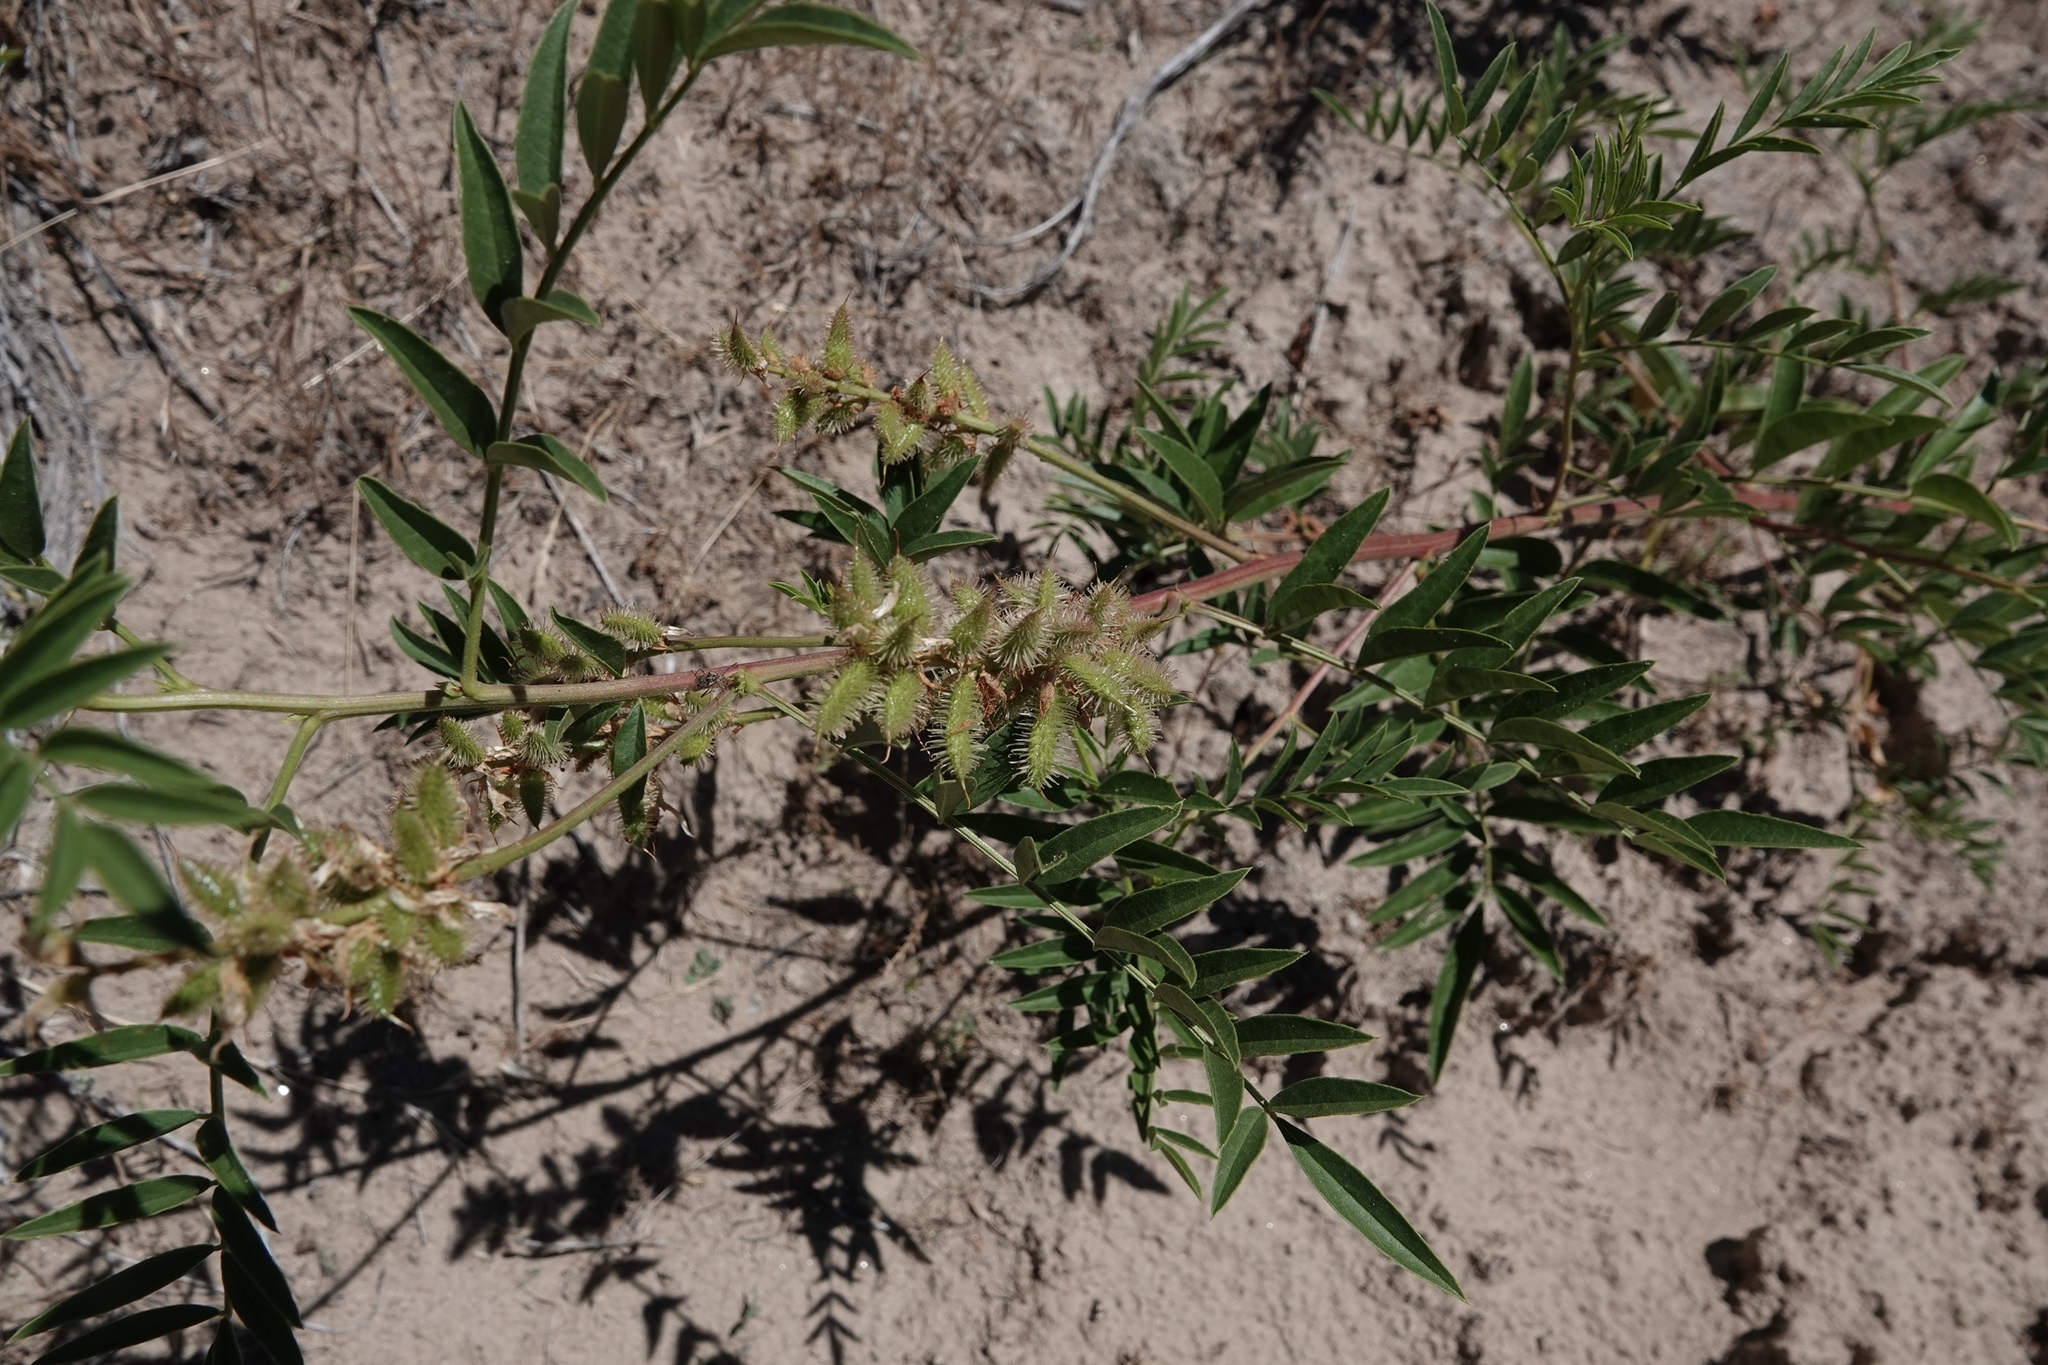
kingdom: Plantae
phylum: Tracheophyta
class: Magnoliopsida
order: Fabales
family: Fabaceae
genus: Glycyrrhiza
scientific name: Glycyrrhiza lepidota
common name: American liquorice
